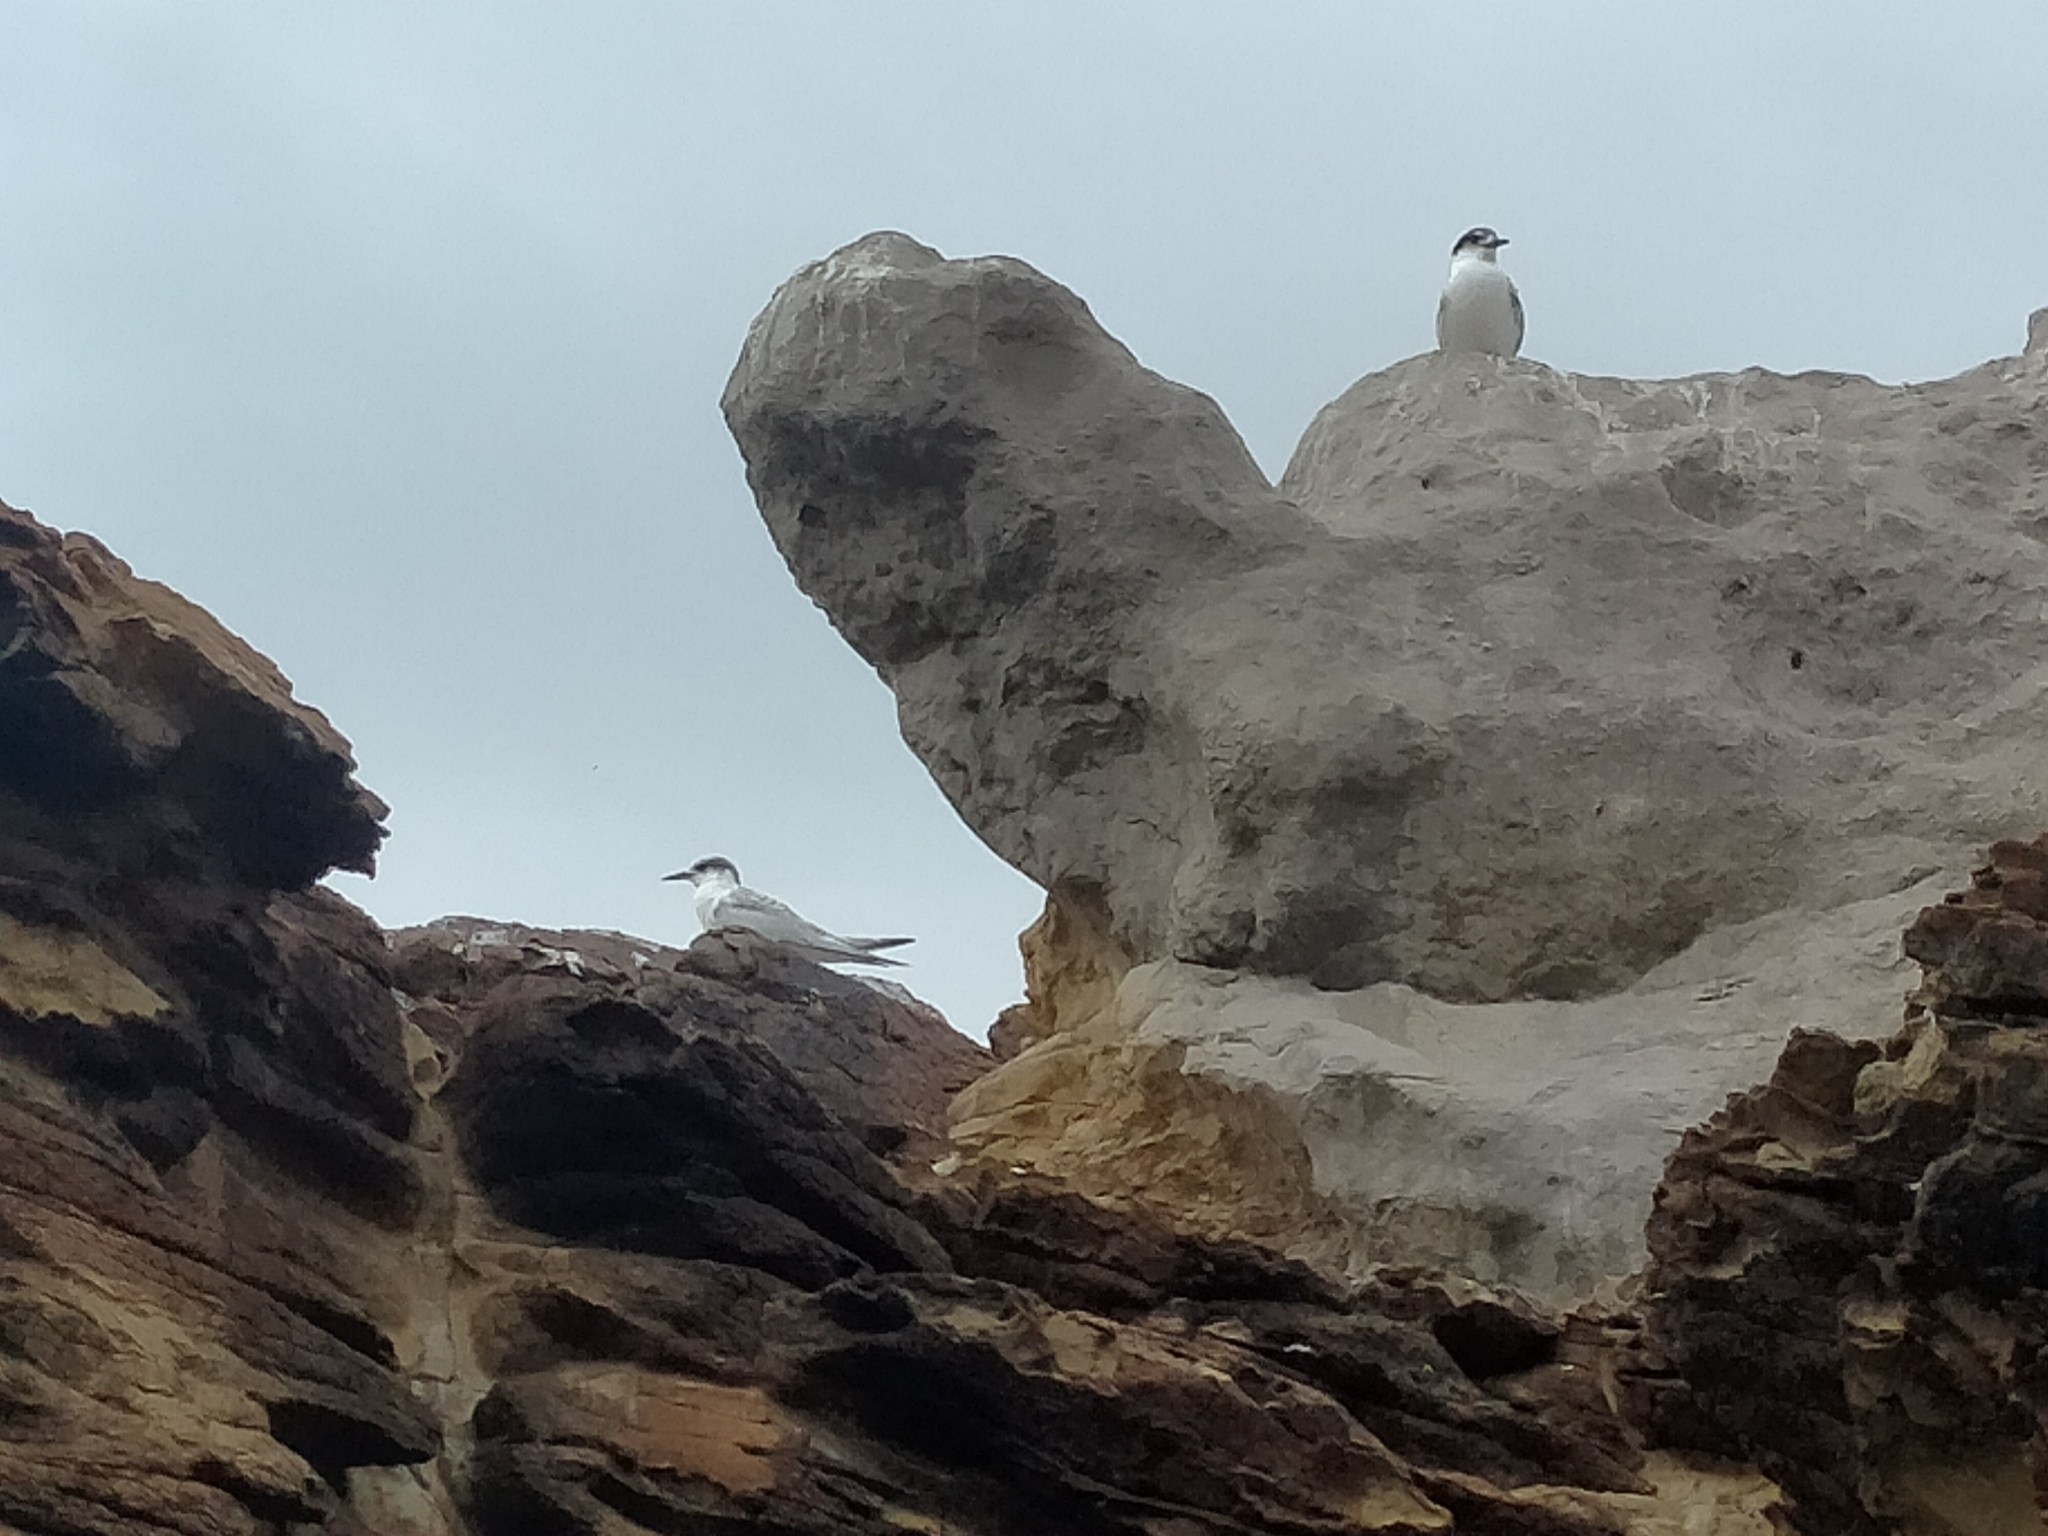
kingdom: Animalia
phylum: Chordata
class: Aves
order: Charadriiformes
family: Laridae
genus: Sterna
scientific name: Sterna striata
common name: White-fronted tern
